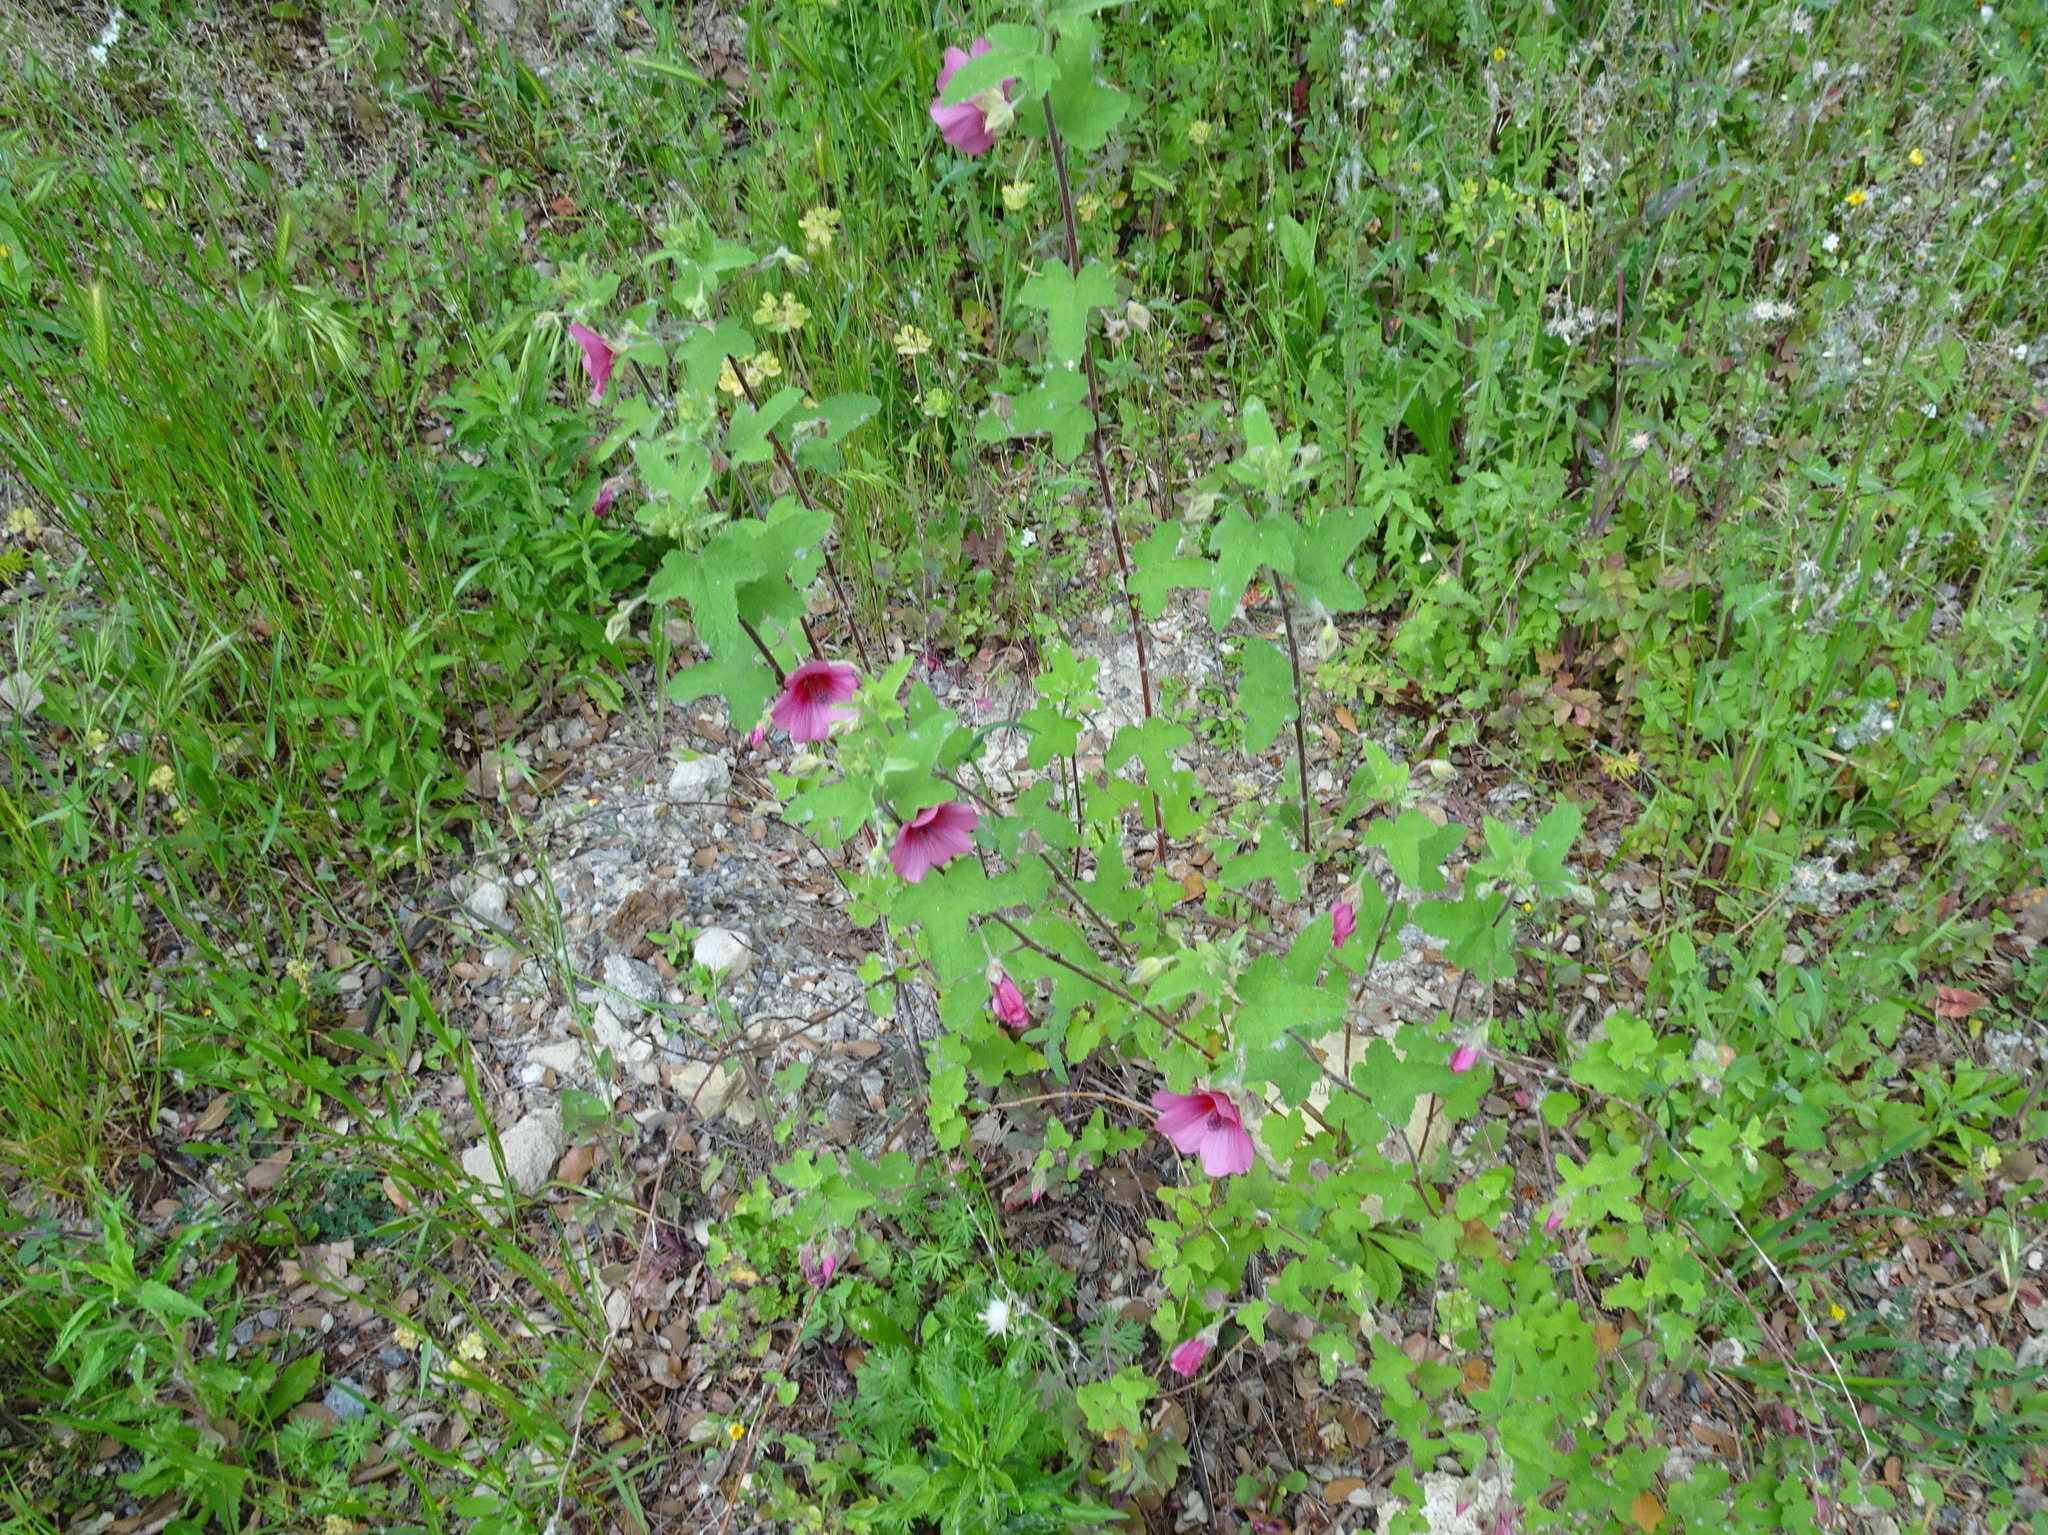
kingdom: Plantae
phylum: Tracheophyta
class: Magnoliopsida
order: Malvales
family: Malvaceae
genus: Alcea
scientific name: Alcea rosea
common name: Hollyhock
